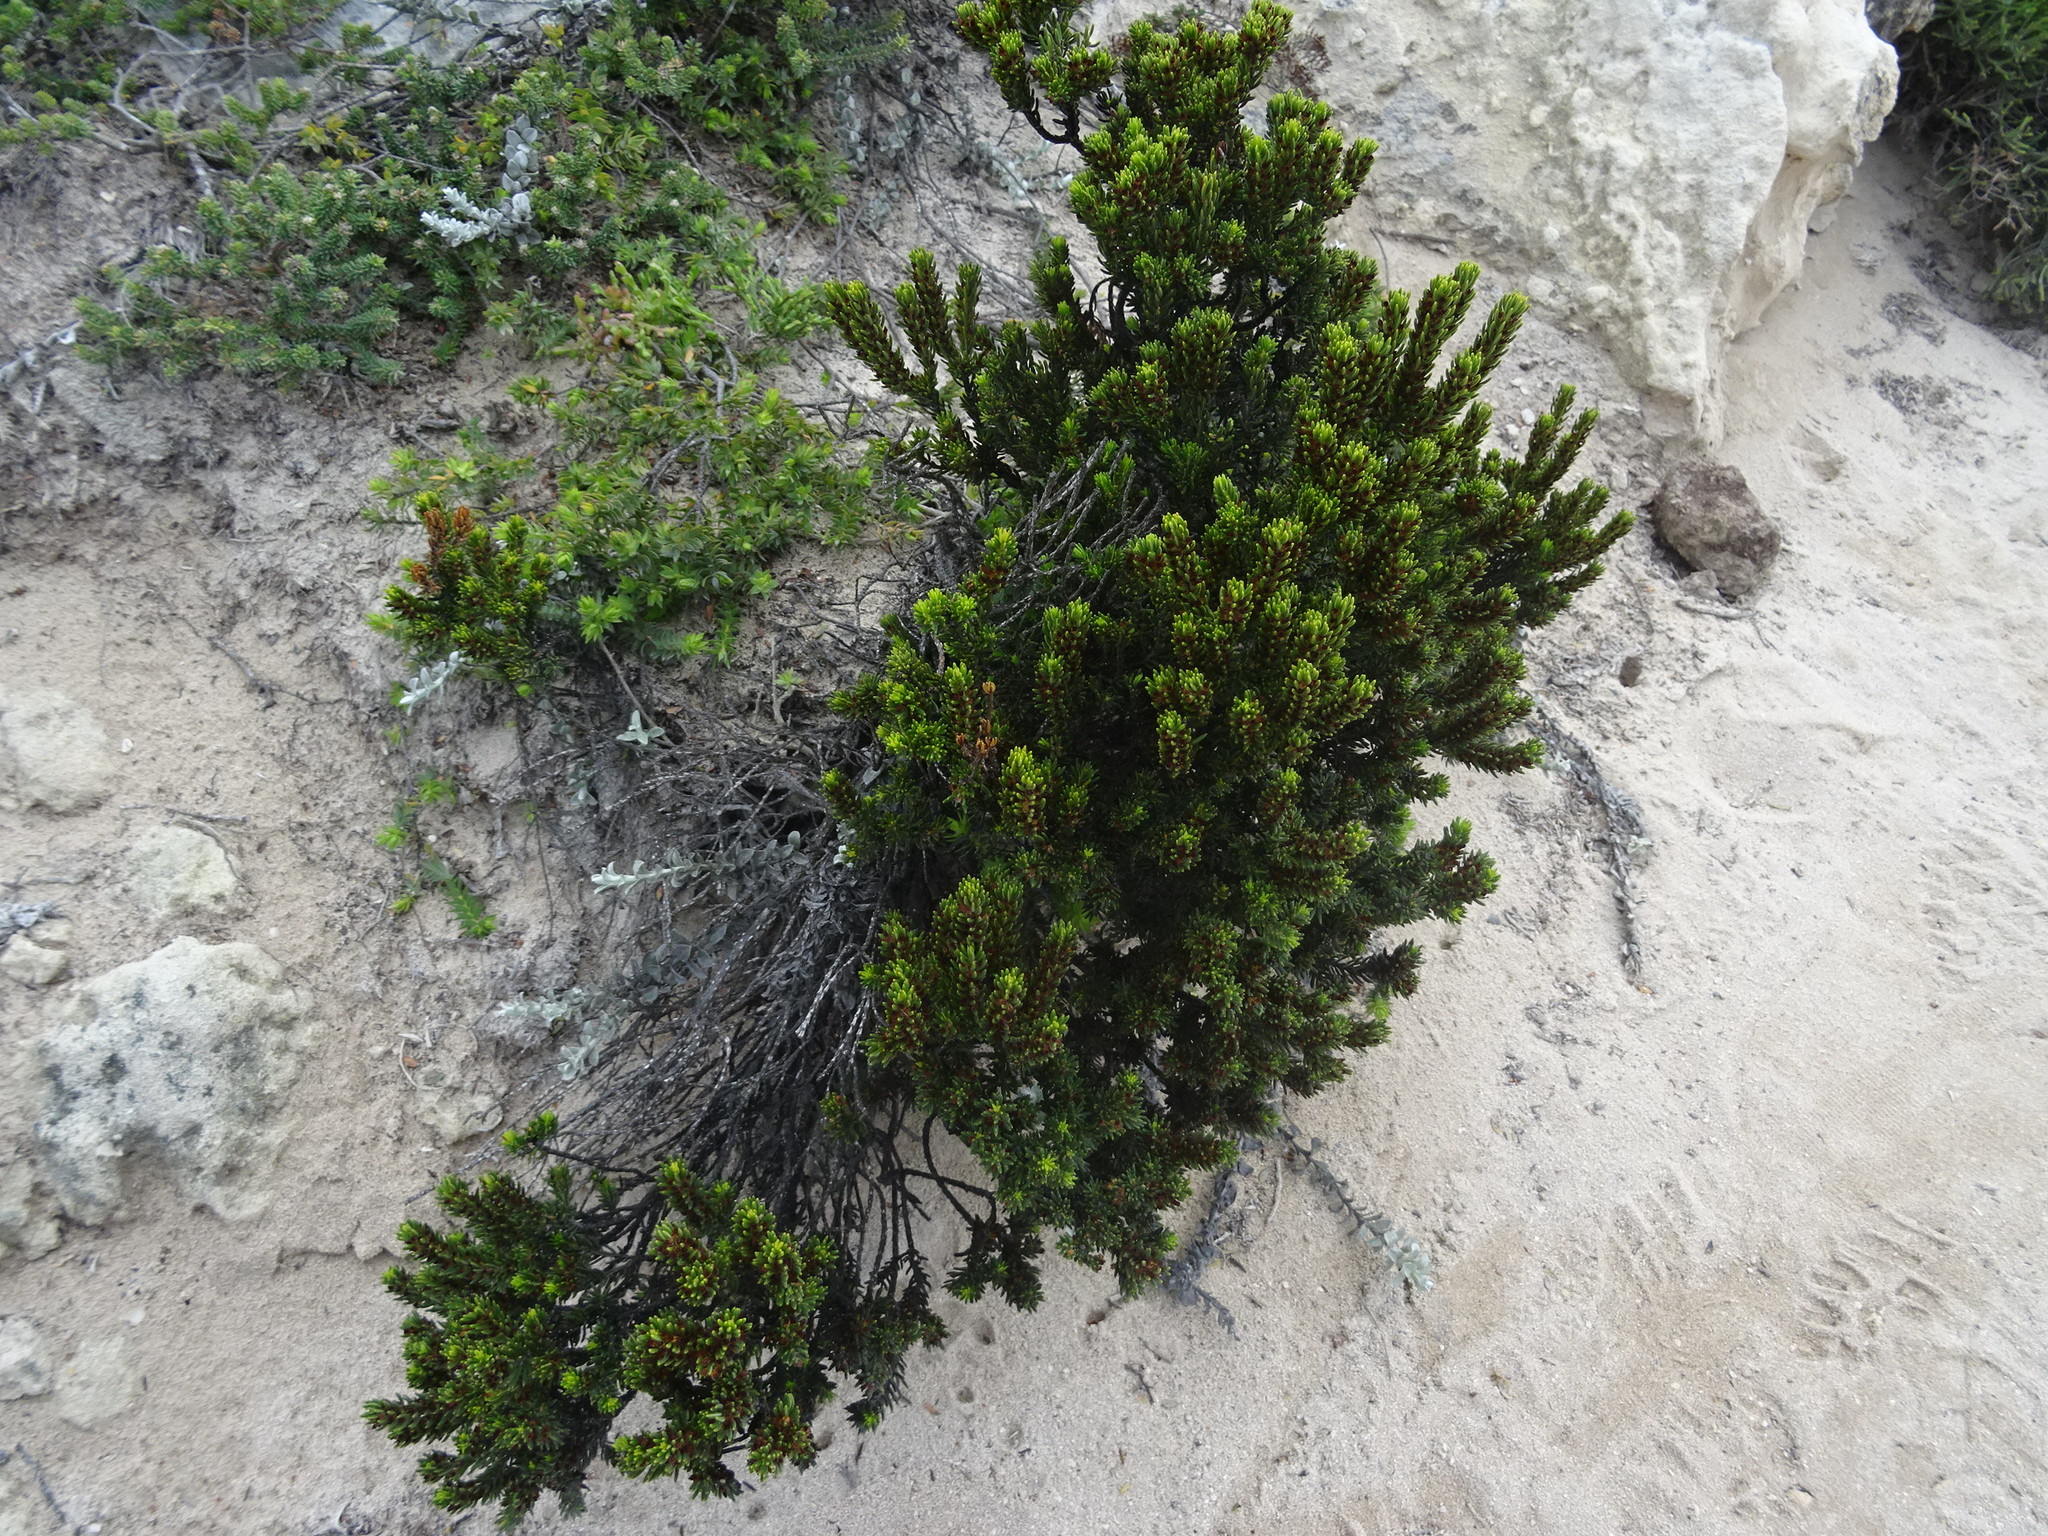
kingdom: Plantae
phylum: Tracheophyta
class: Magnoliopsida
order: Ericales
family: Ericaceae
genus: Erica
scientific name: Erica coarctata
